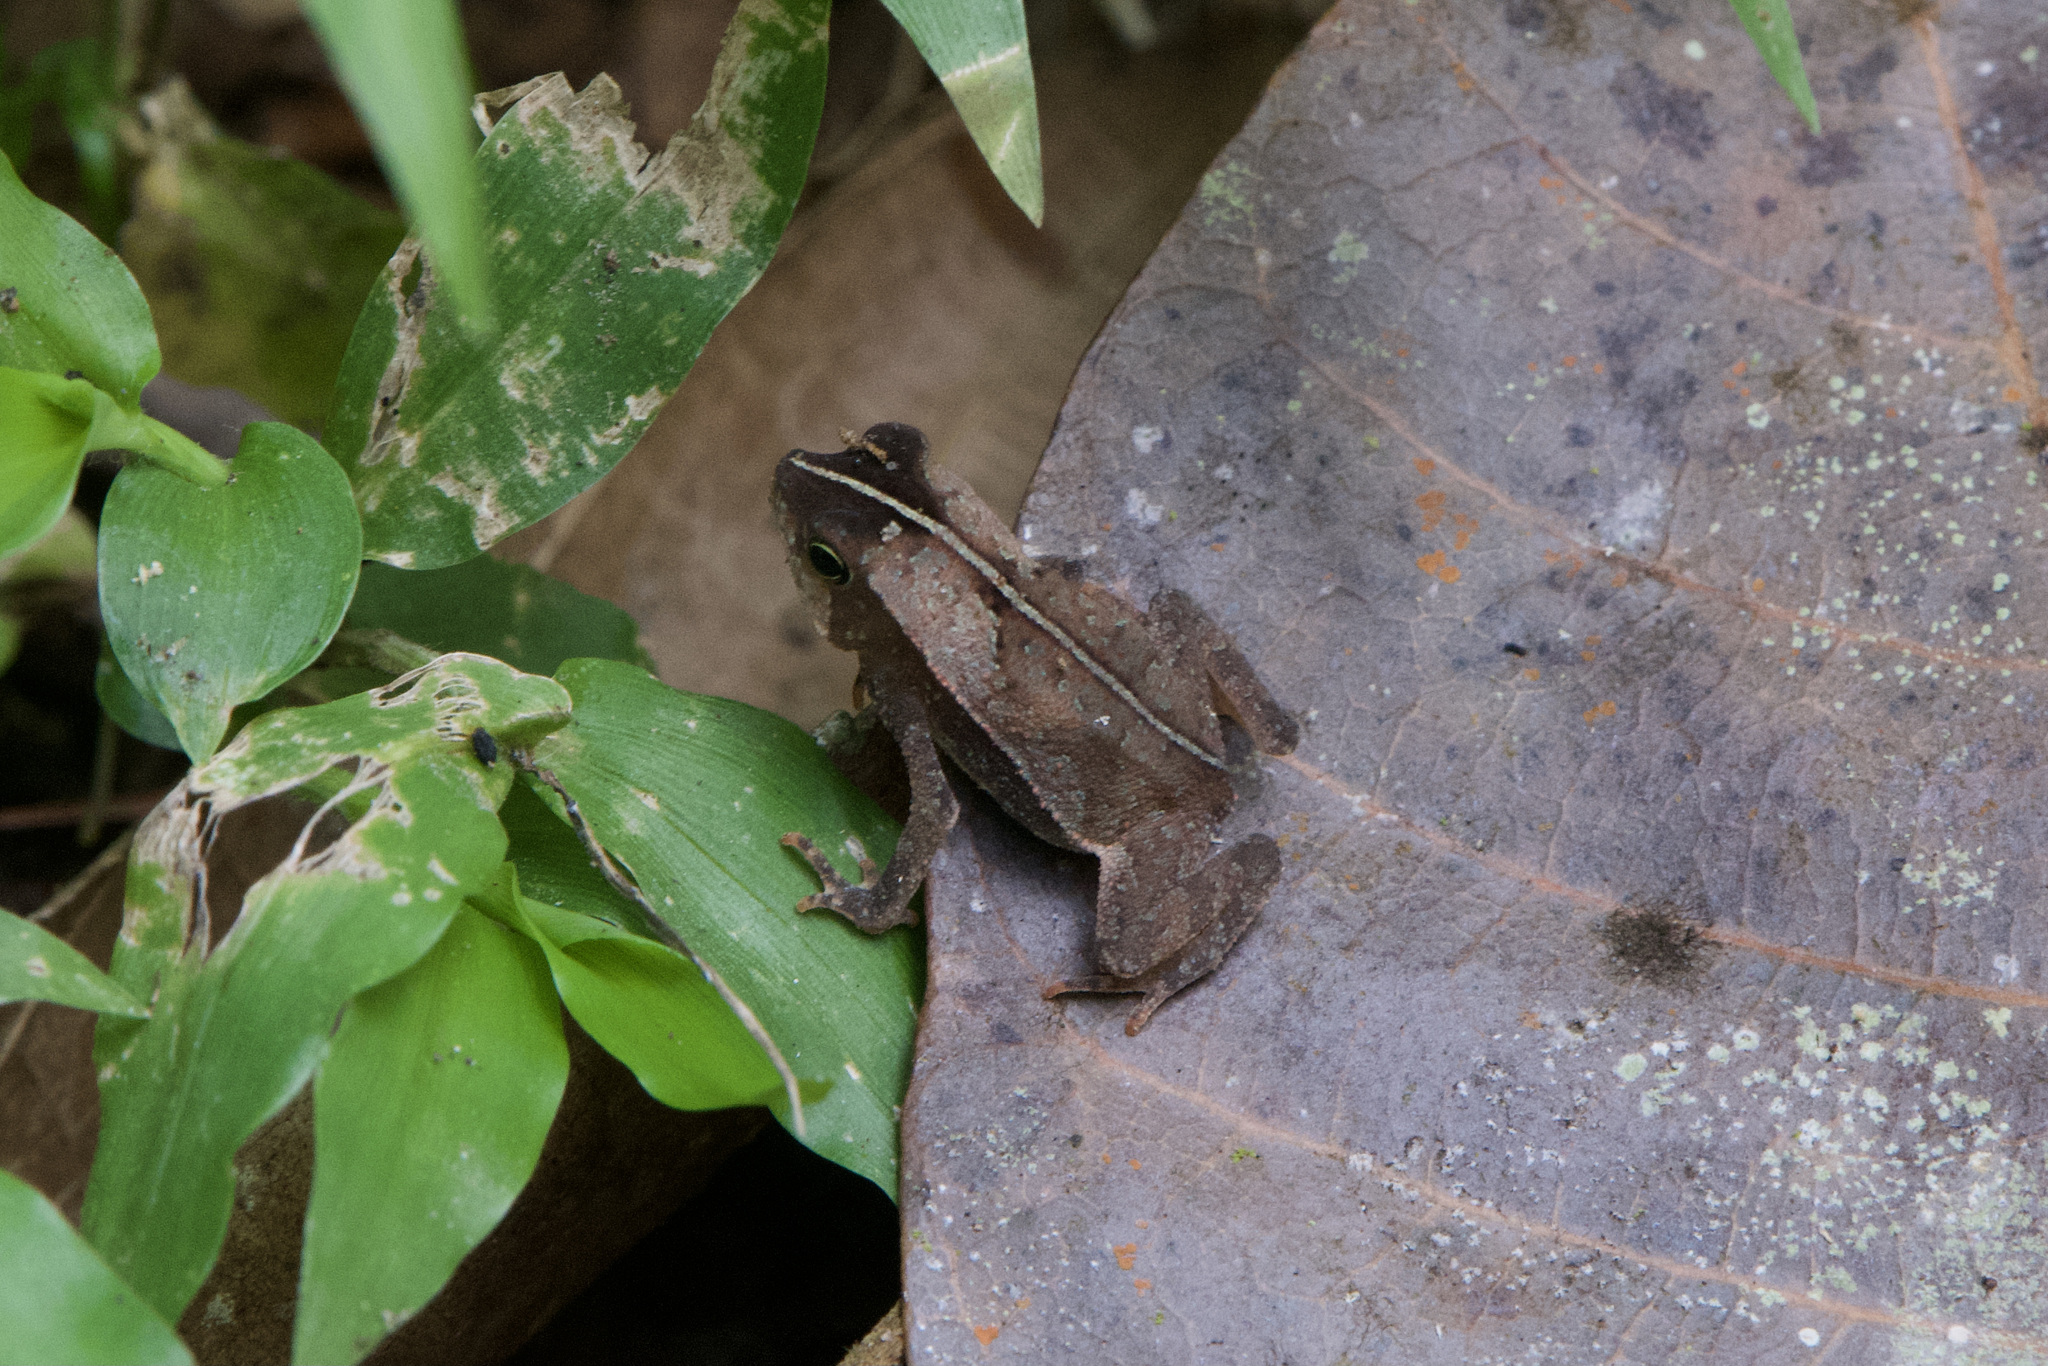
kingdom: Animalia
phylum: Chordata
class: Amphibia
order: Anura
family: Bufonidae
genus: Rhinella
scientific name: Rhinella alata
